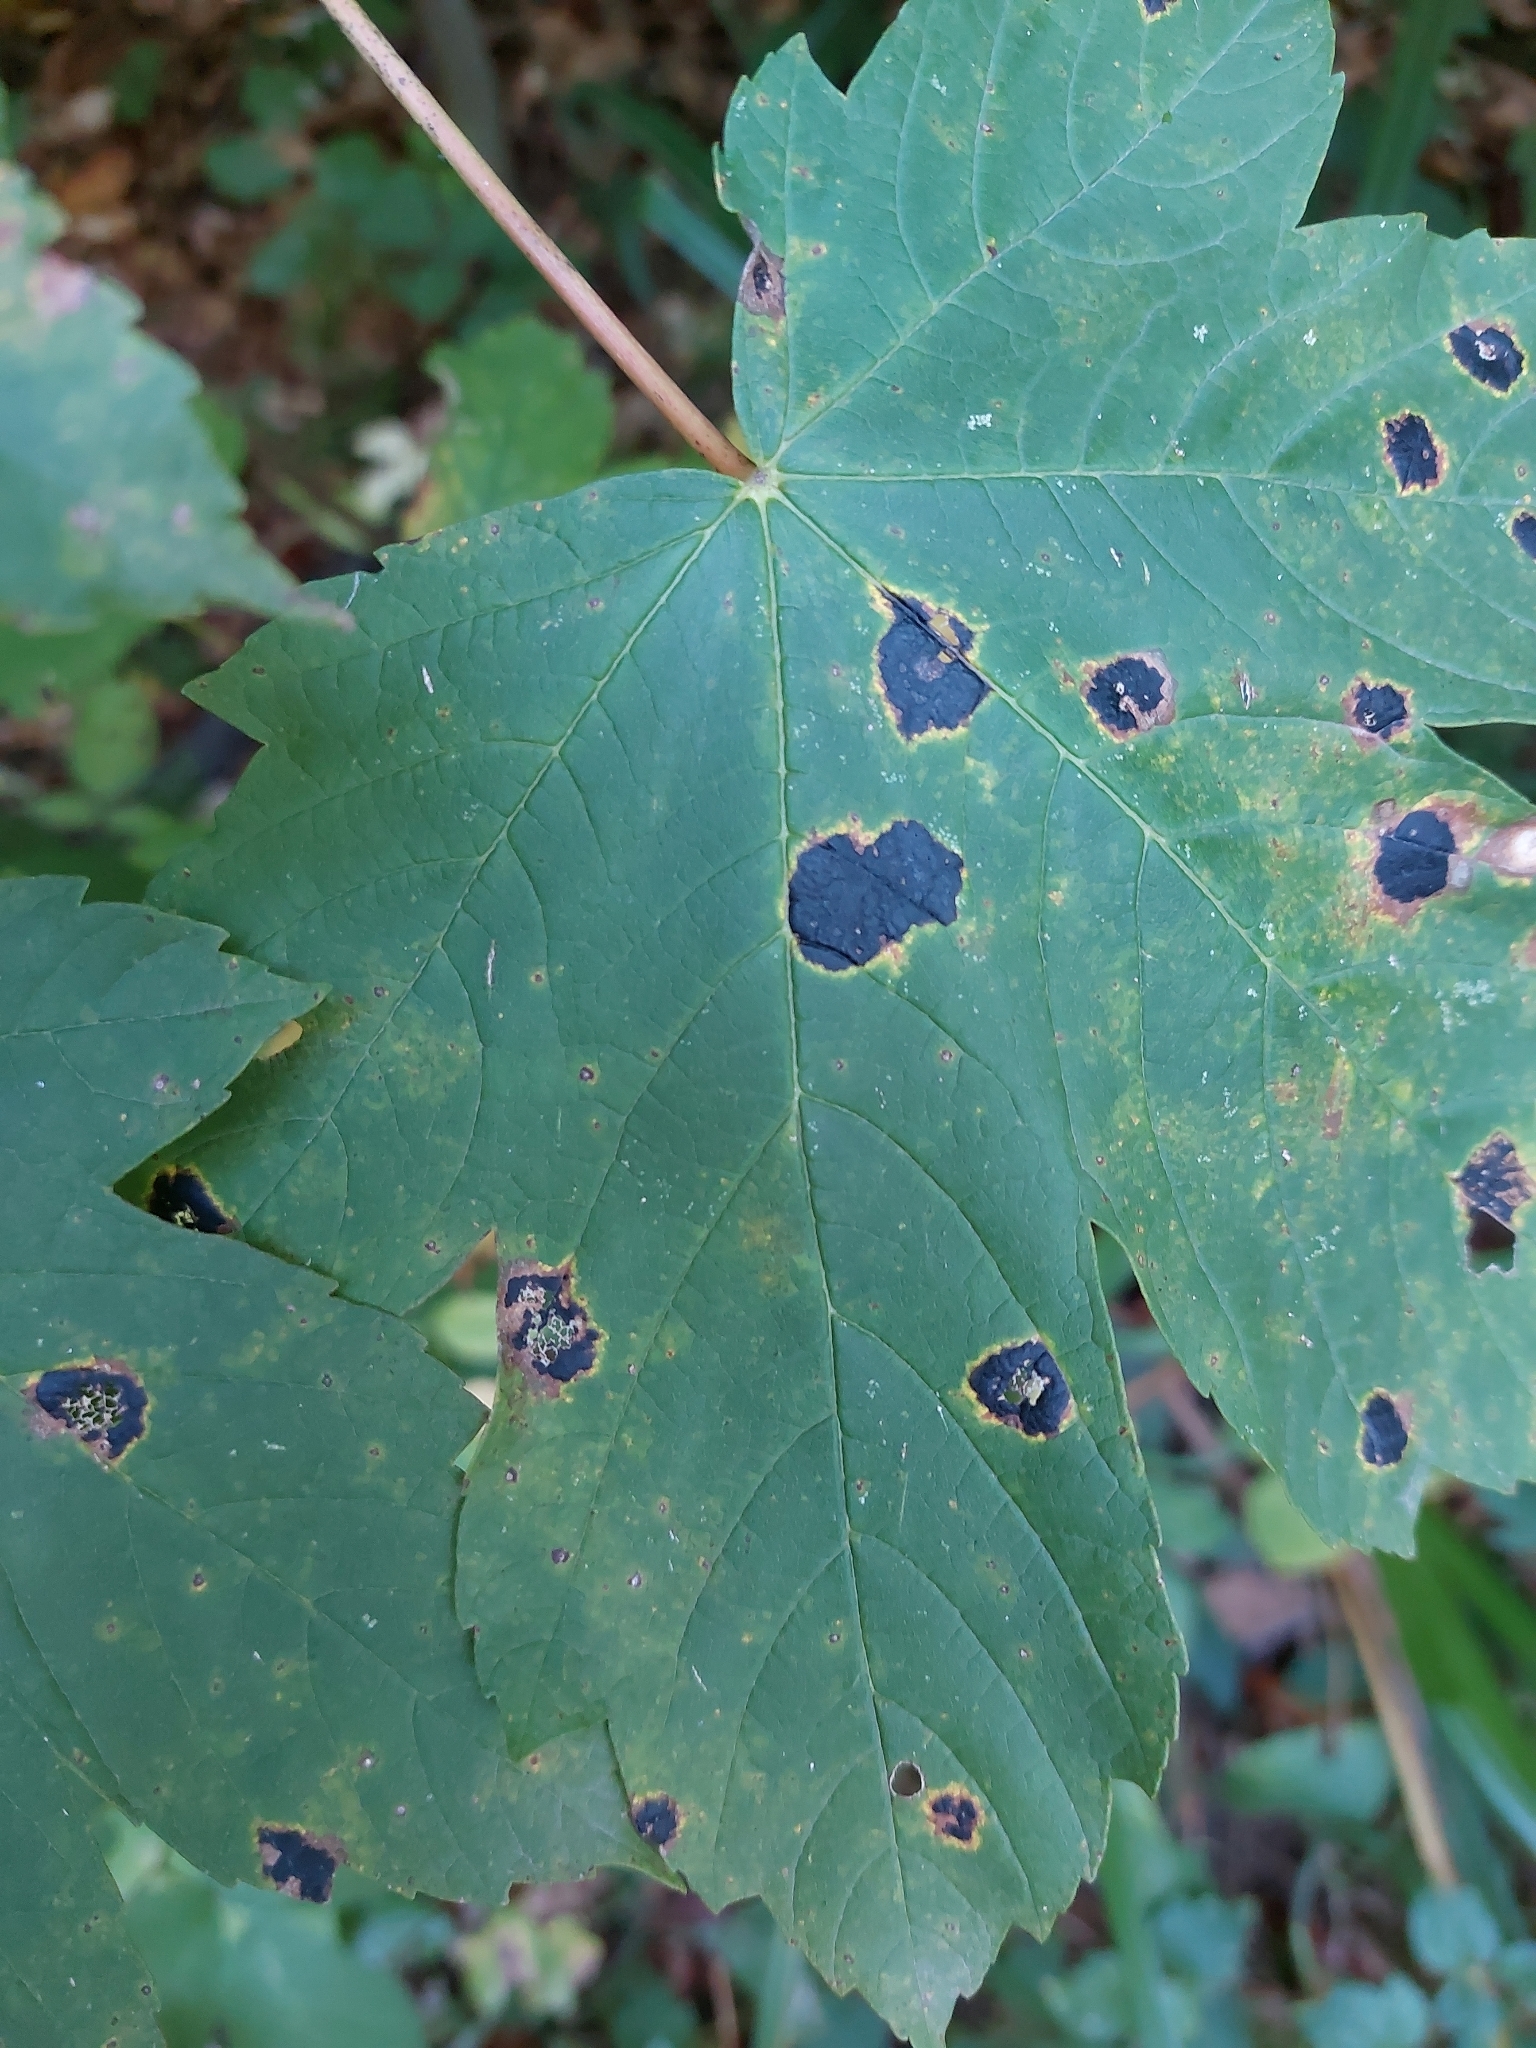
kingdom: Fungi
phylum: Ascomycota
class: Leotiomycetes
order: Rhytismatales
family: Rhytismataceae
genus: Rhytisma
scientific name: Rhytisma acerinum
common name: European tar spot
